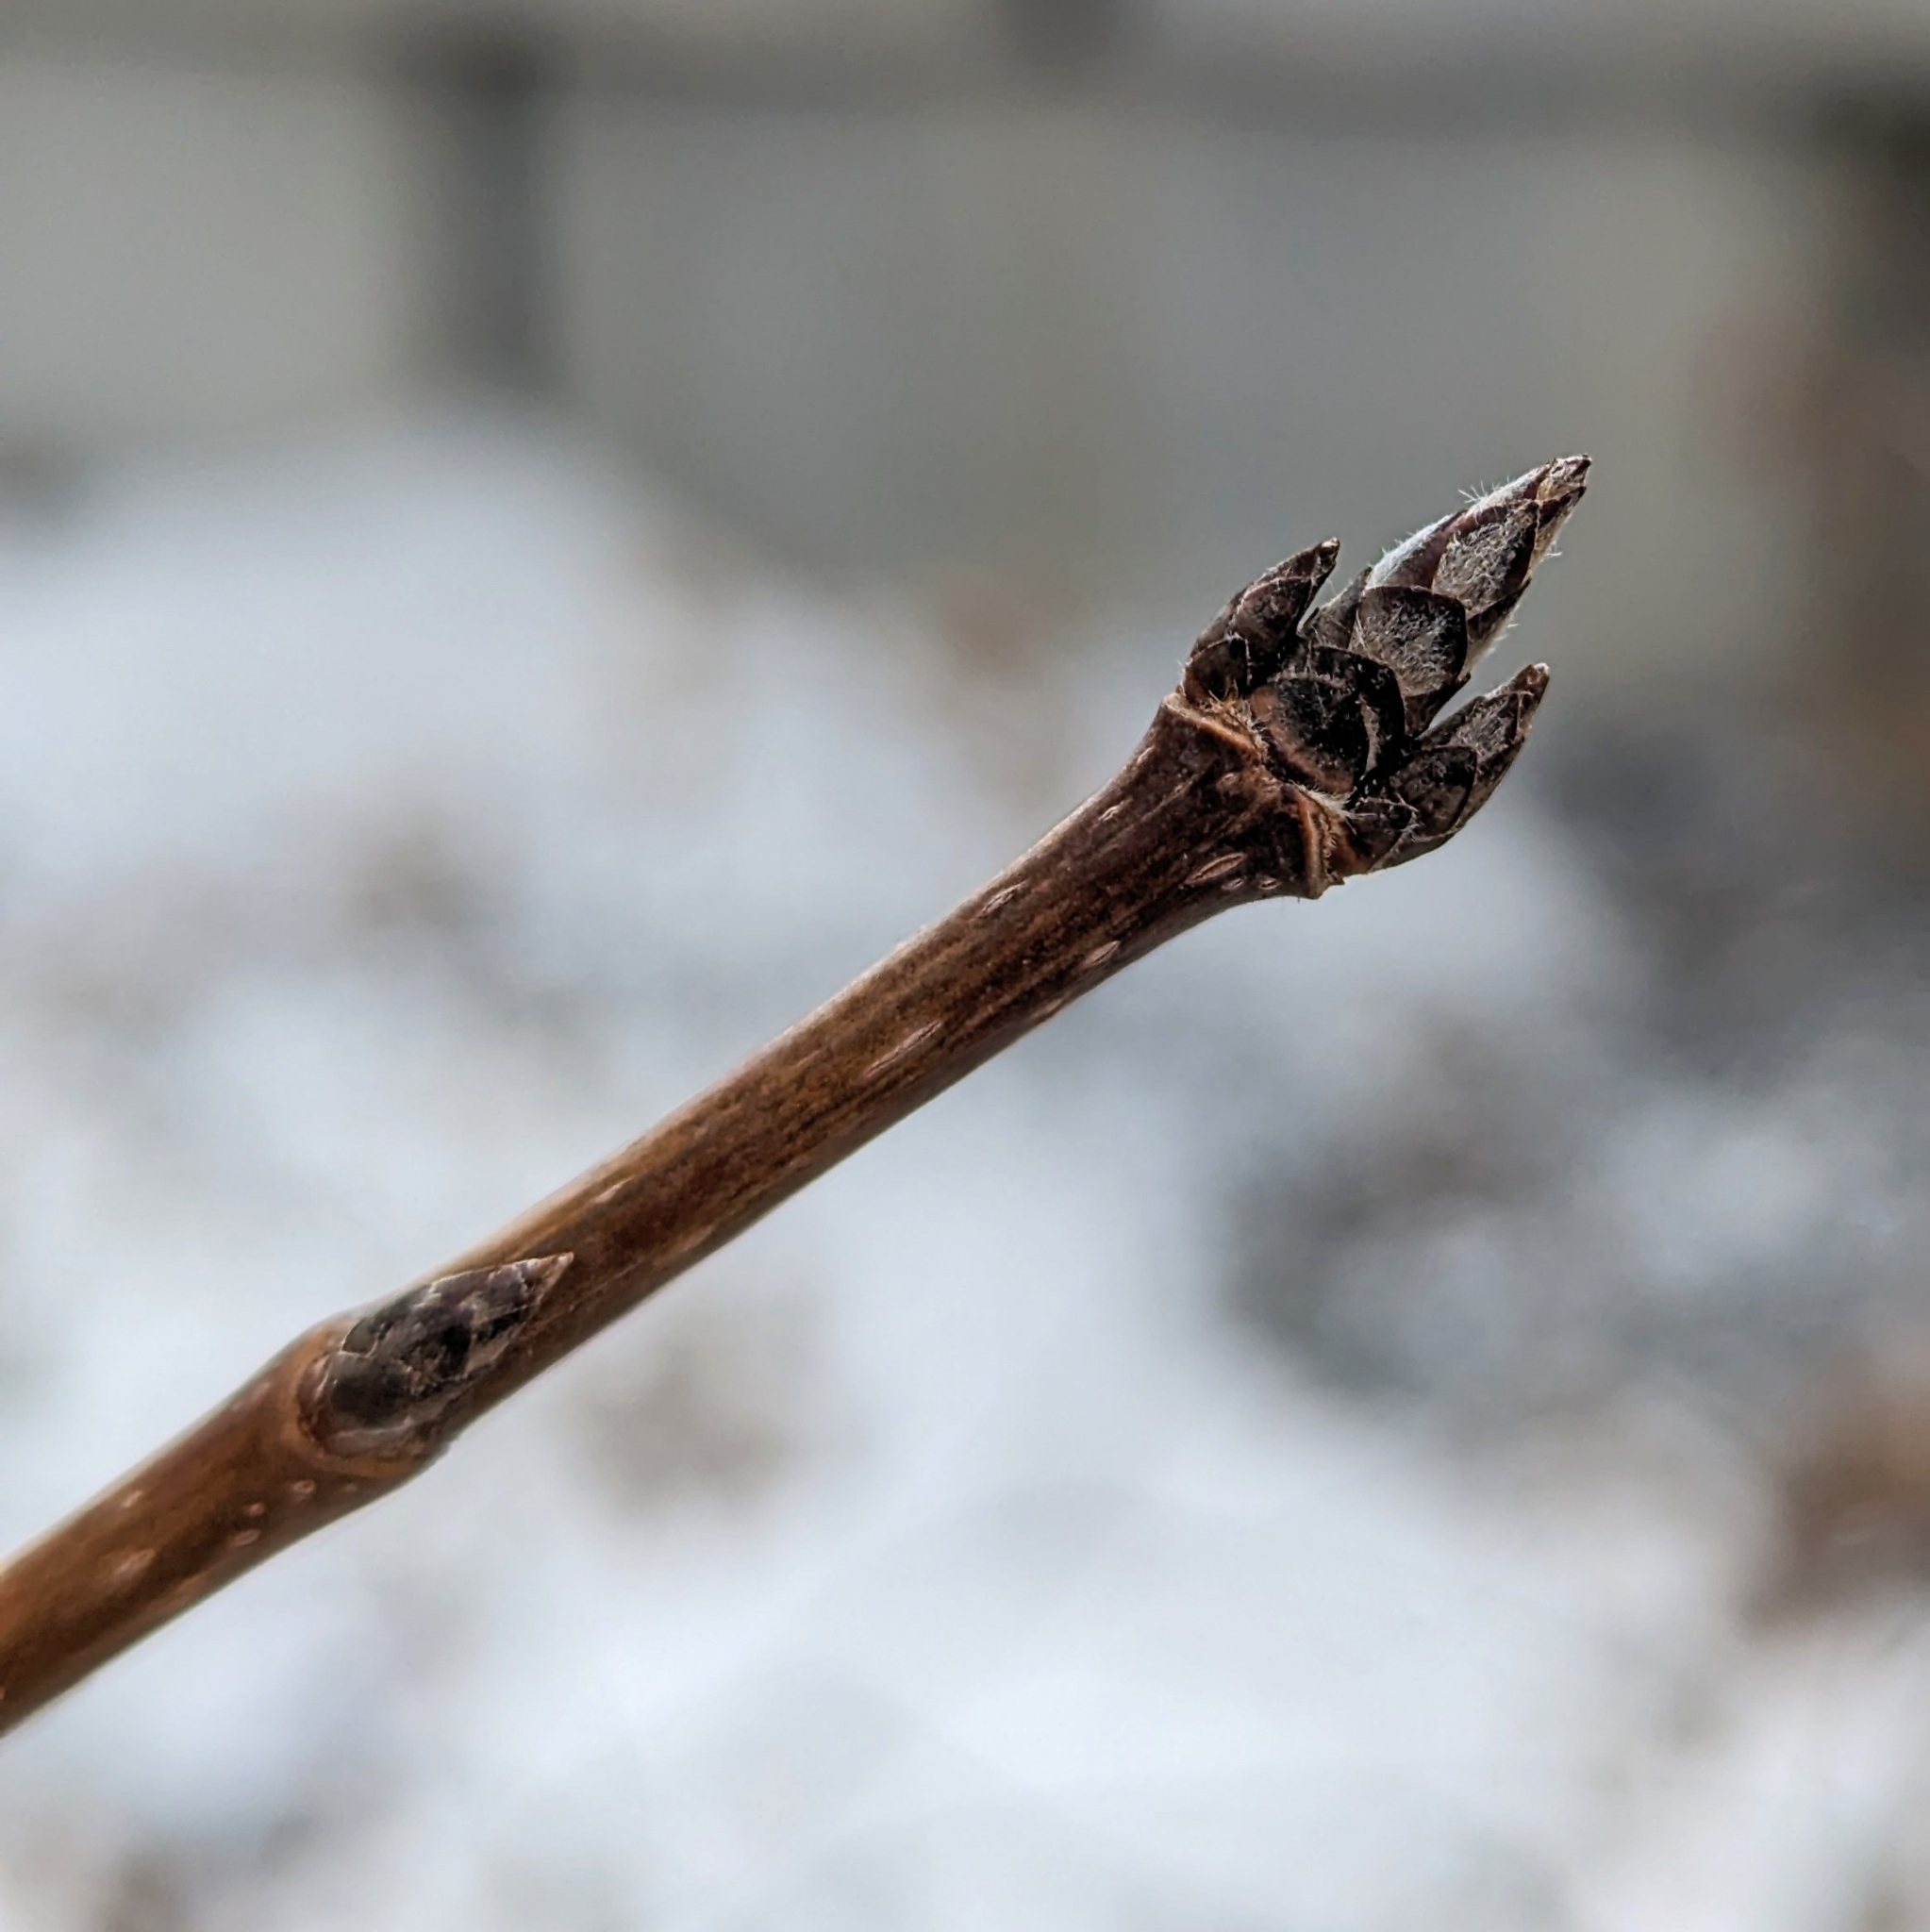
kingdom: Plantae
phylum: Tracheophyta
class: Magnoliopsida
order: Sapindales
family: Sapindaceae
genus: Acer
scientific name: Acer
